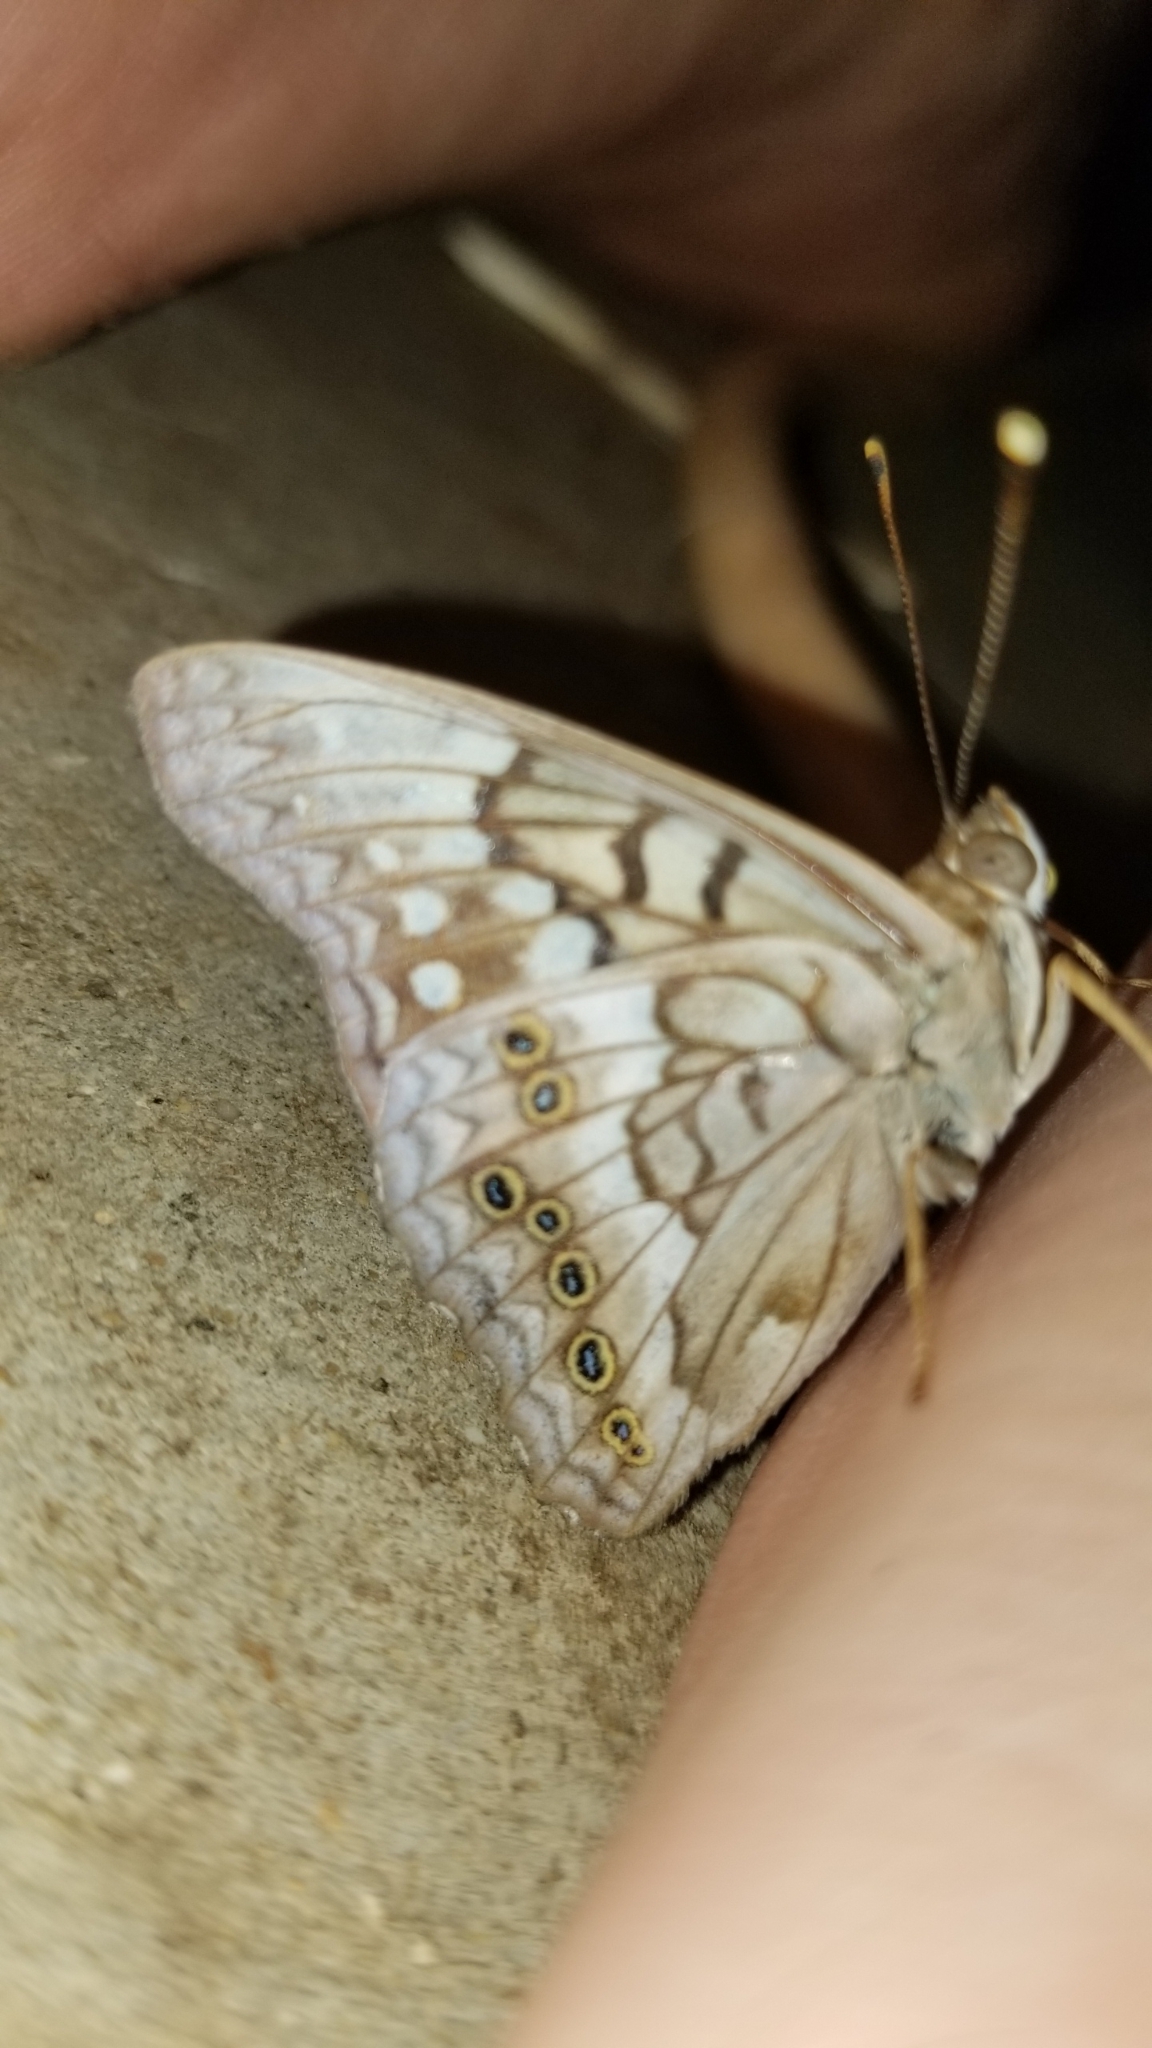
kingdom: Animalia
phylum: Arthropoda
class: Insecta
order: Lepidoptera
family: Nymphalidae
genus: Asterocampa
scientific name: Asterocampa clyton
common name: Tawny emperor
